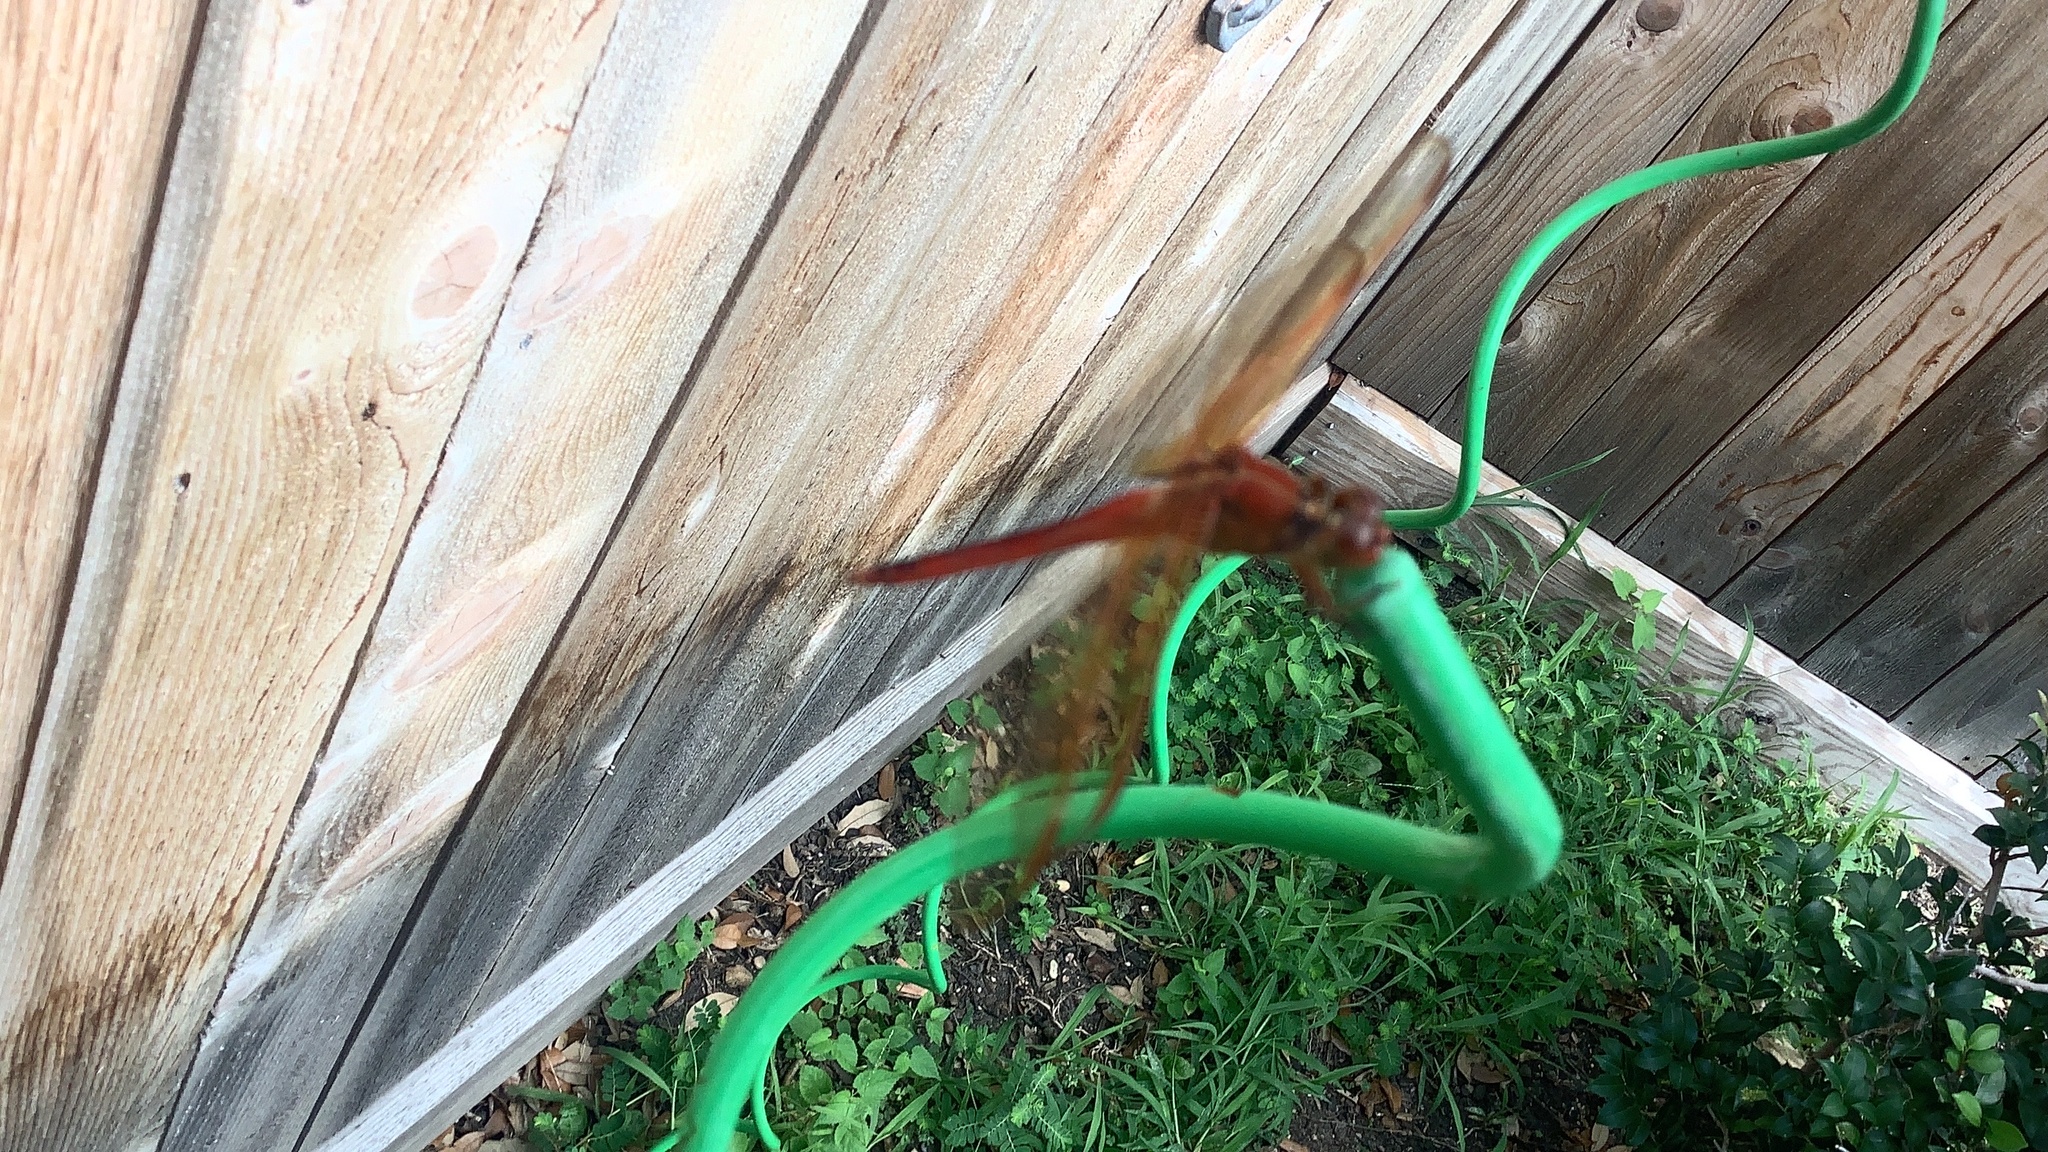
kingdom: Animalia
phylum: Arthropoda
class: Insecta
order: Odonata
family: Libellulidae
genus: Libellula
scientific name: Libellula needhami
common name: Needham's skimmer
